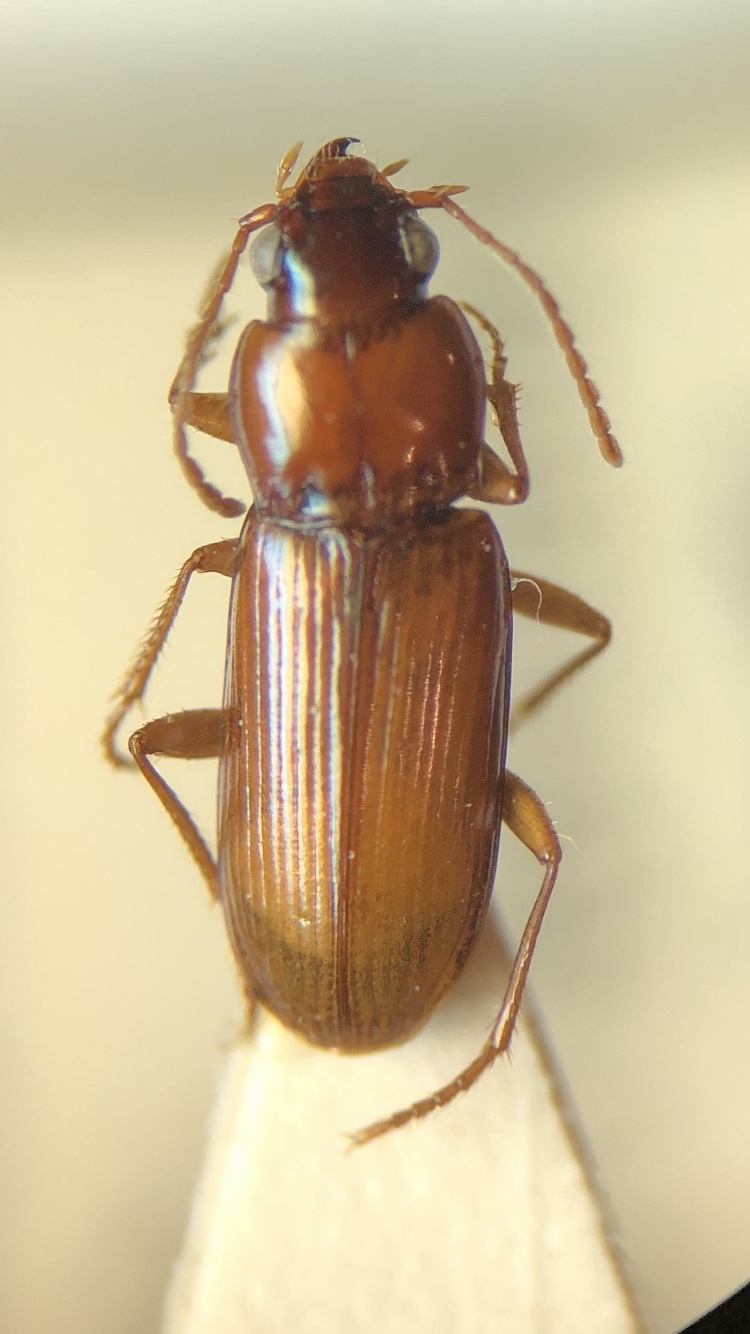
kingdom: Animalia
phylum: Arthropoda
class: Insecta
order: Coleoptera
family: Carabidae
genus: Pogonistes
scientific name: Pogonistes testaceus
